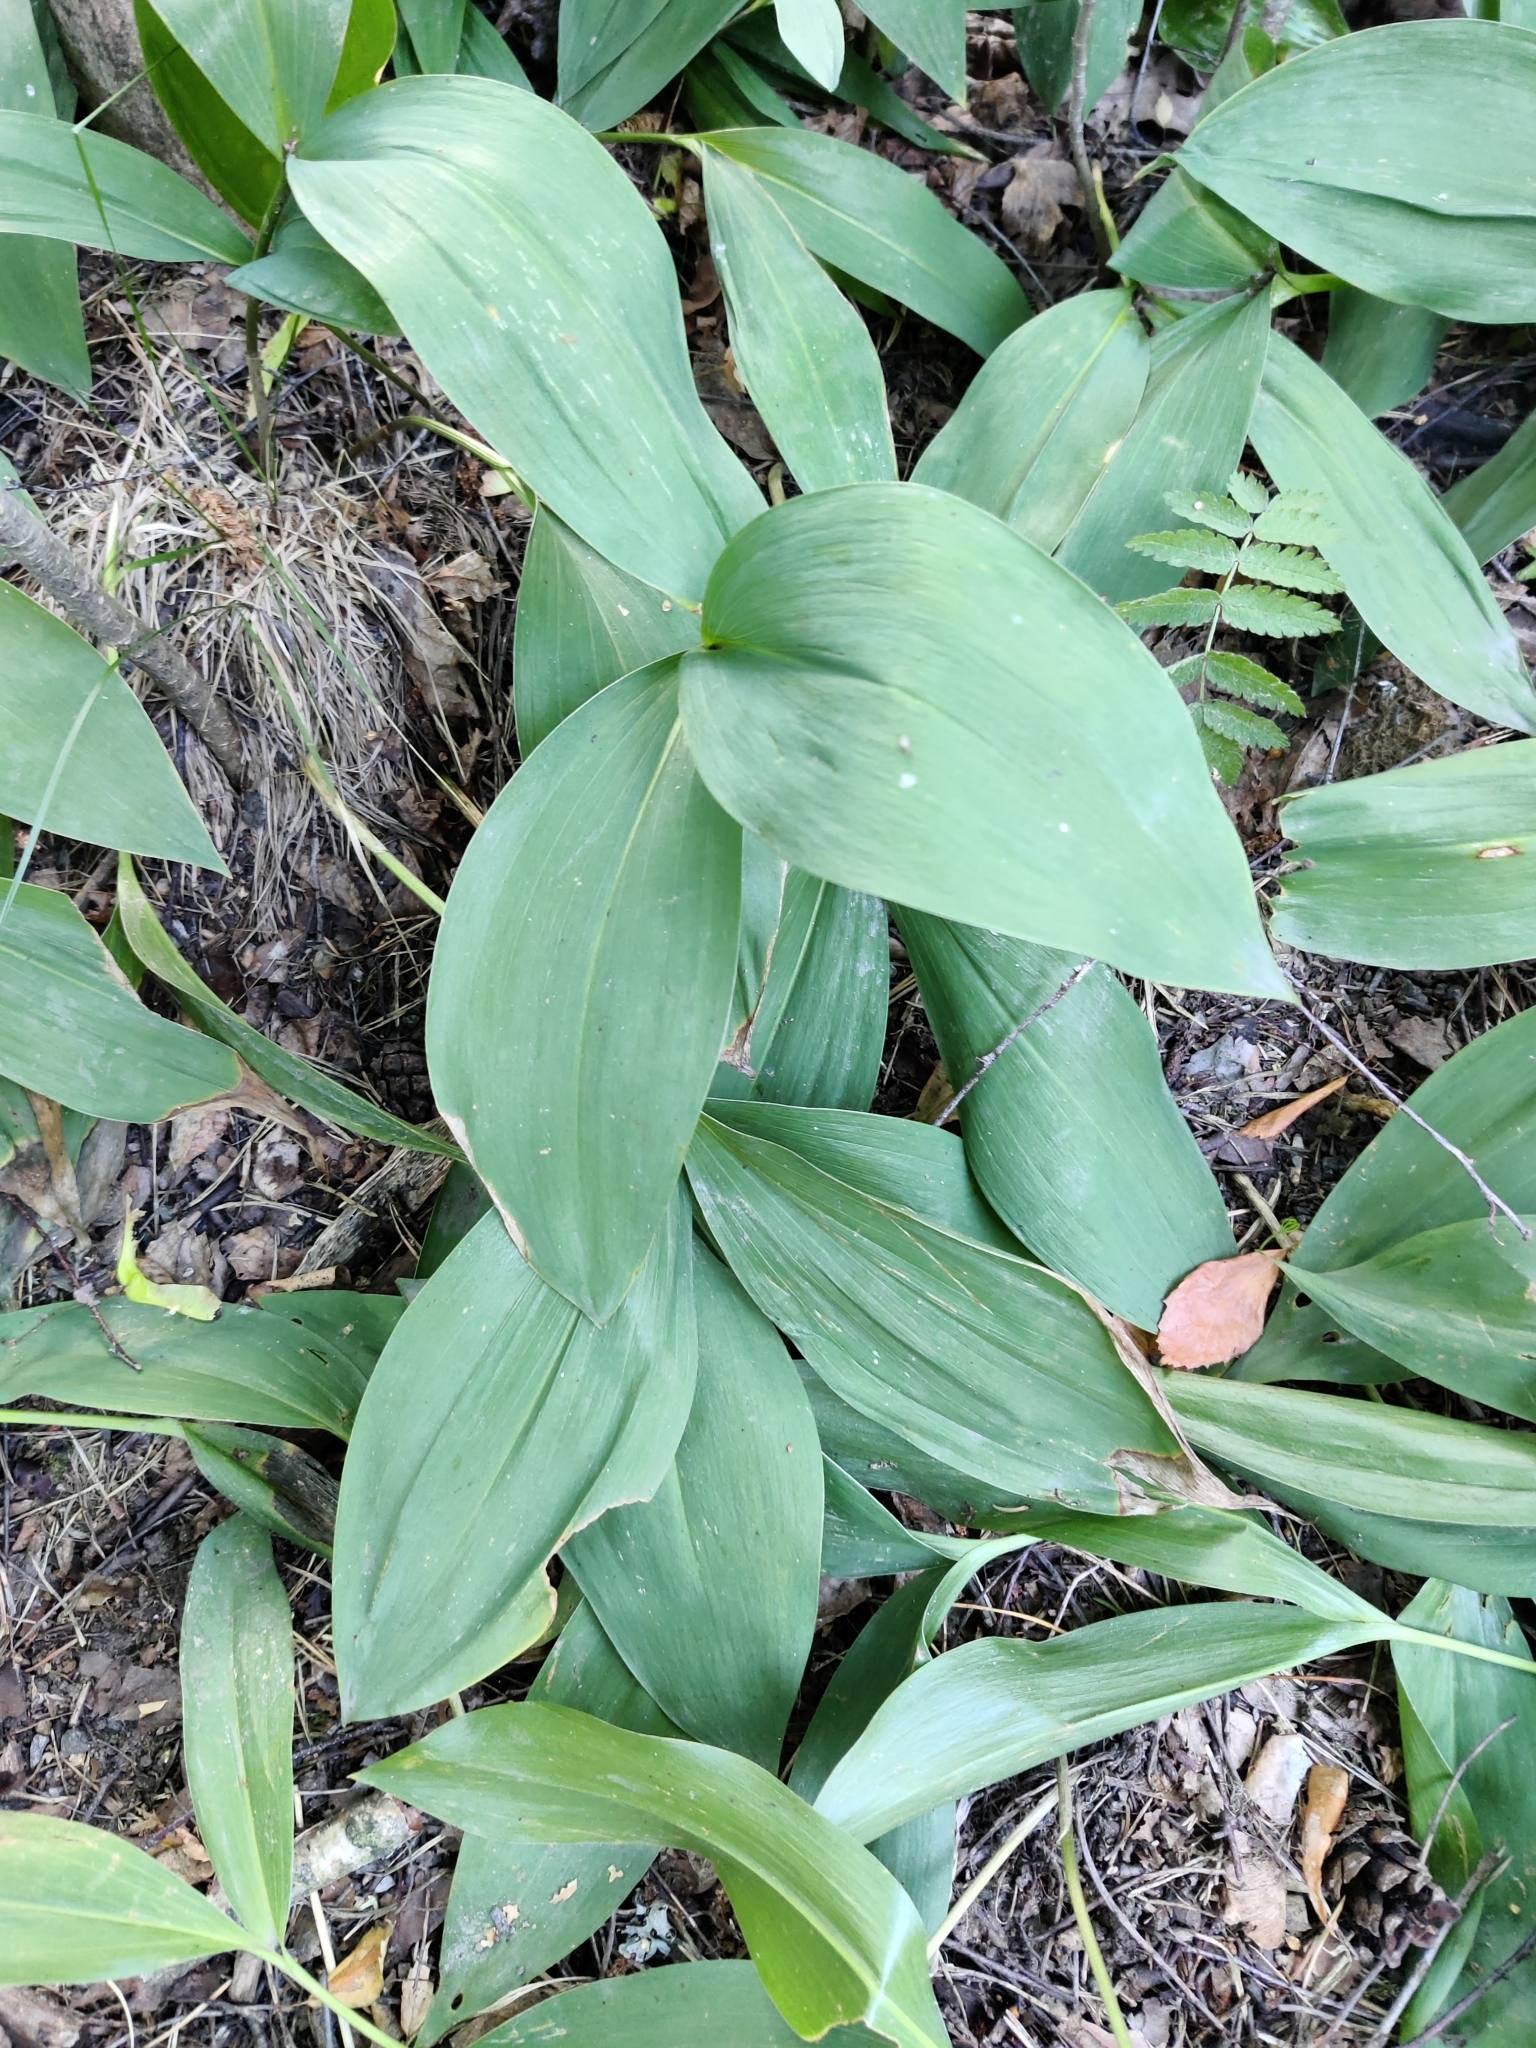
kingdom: Plantae
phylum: Tracheophyta
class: Liliopsida
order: Asparagales
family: Asparagaceae
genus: Convallaria
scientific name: Convallaria majalis
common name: Lily-of-the-valley
